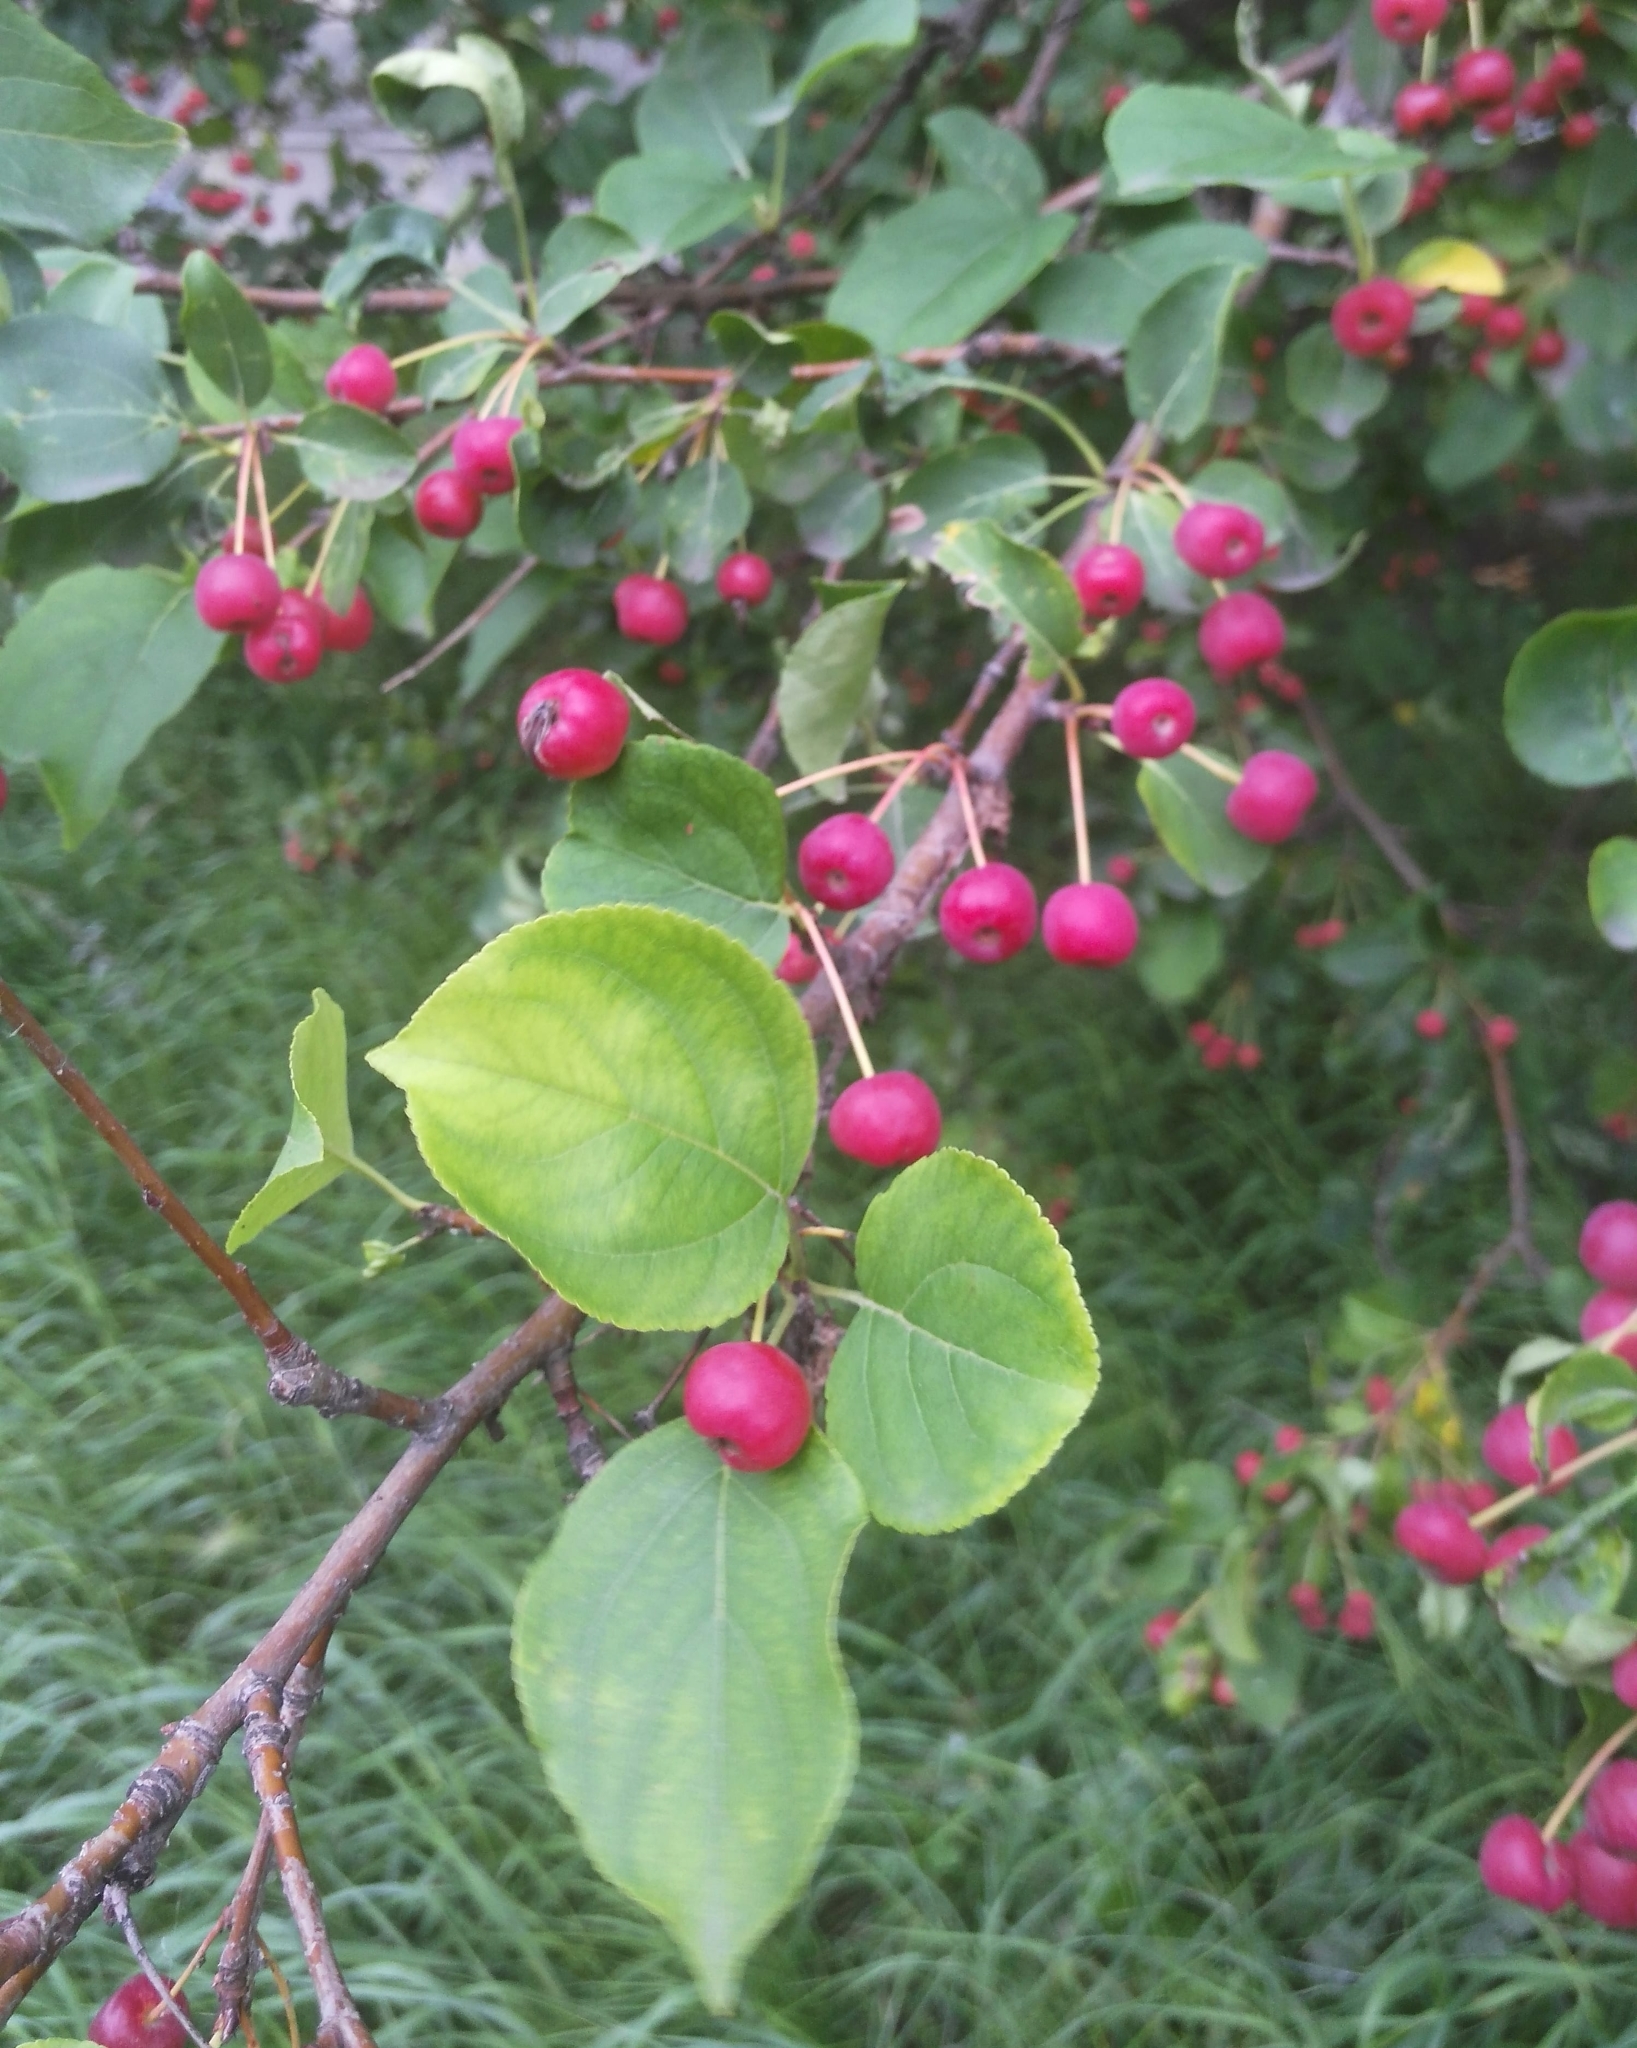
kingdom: Plantae
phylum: Tracheophyta
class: Magnoliopsida
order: Rosales
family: Rosaceae
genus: Malus
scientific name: Malus baccata
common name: Siberian crab
